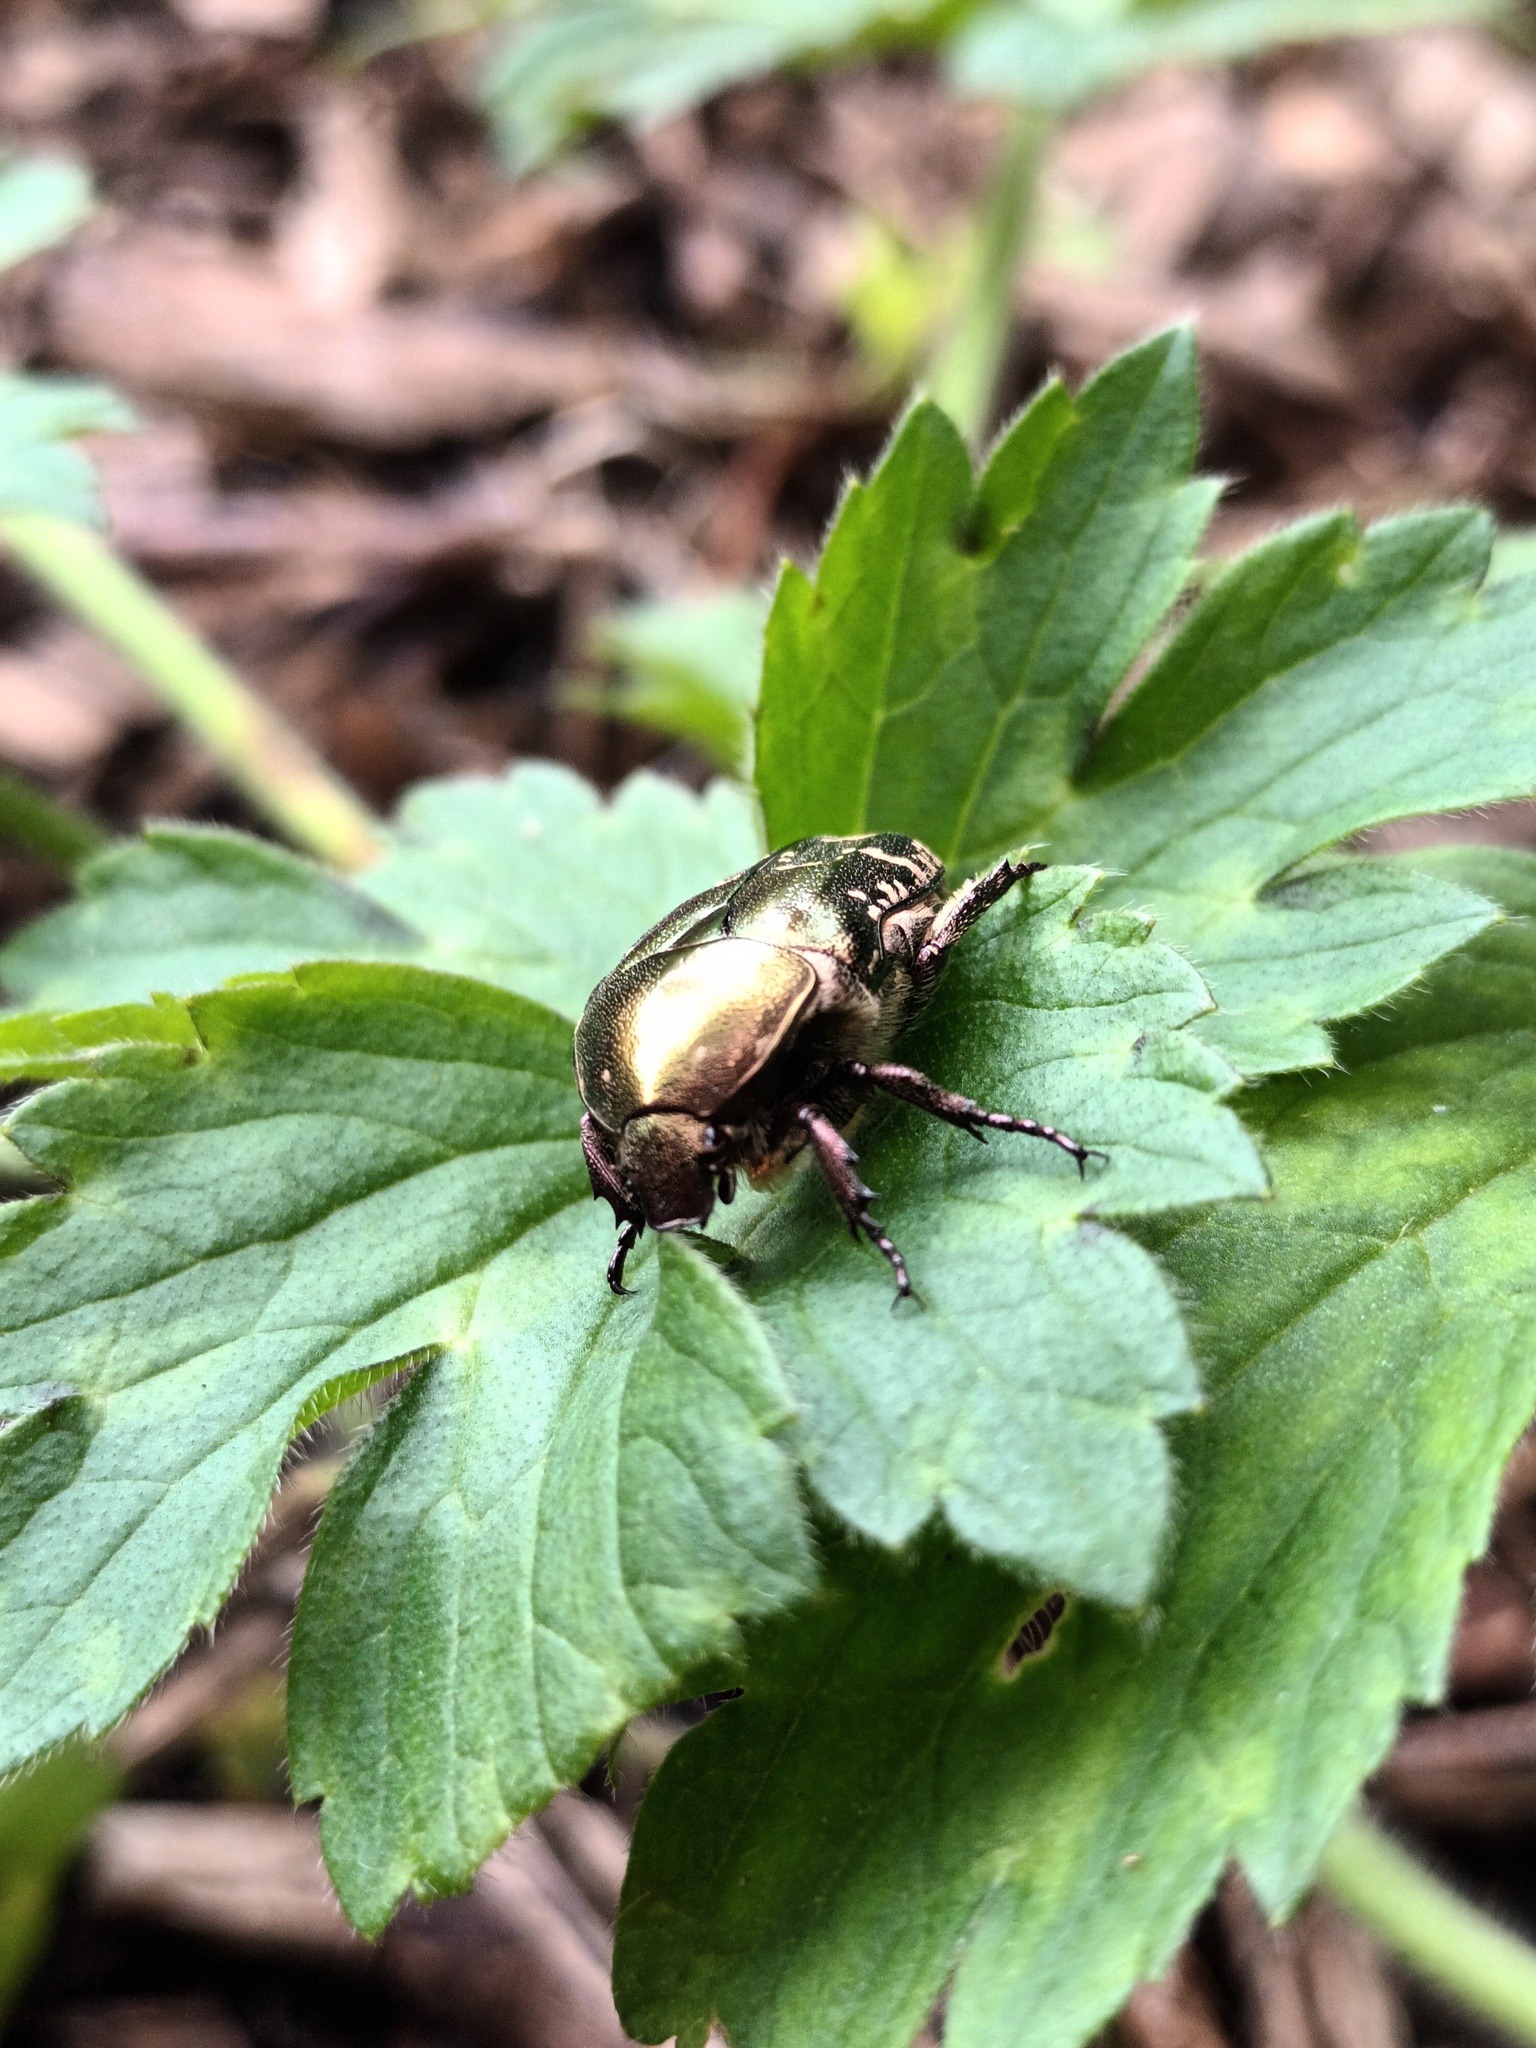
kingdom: Animalia
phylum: Arthropoda
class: Insecta
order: Coleoptera
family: Scarabaeidae
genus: Protaetia
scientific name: Protaetia cuprea
